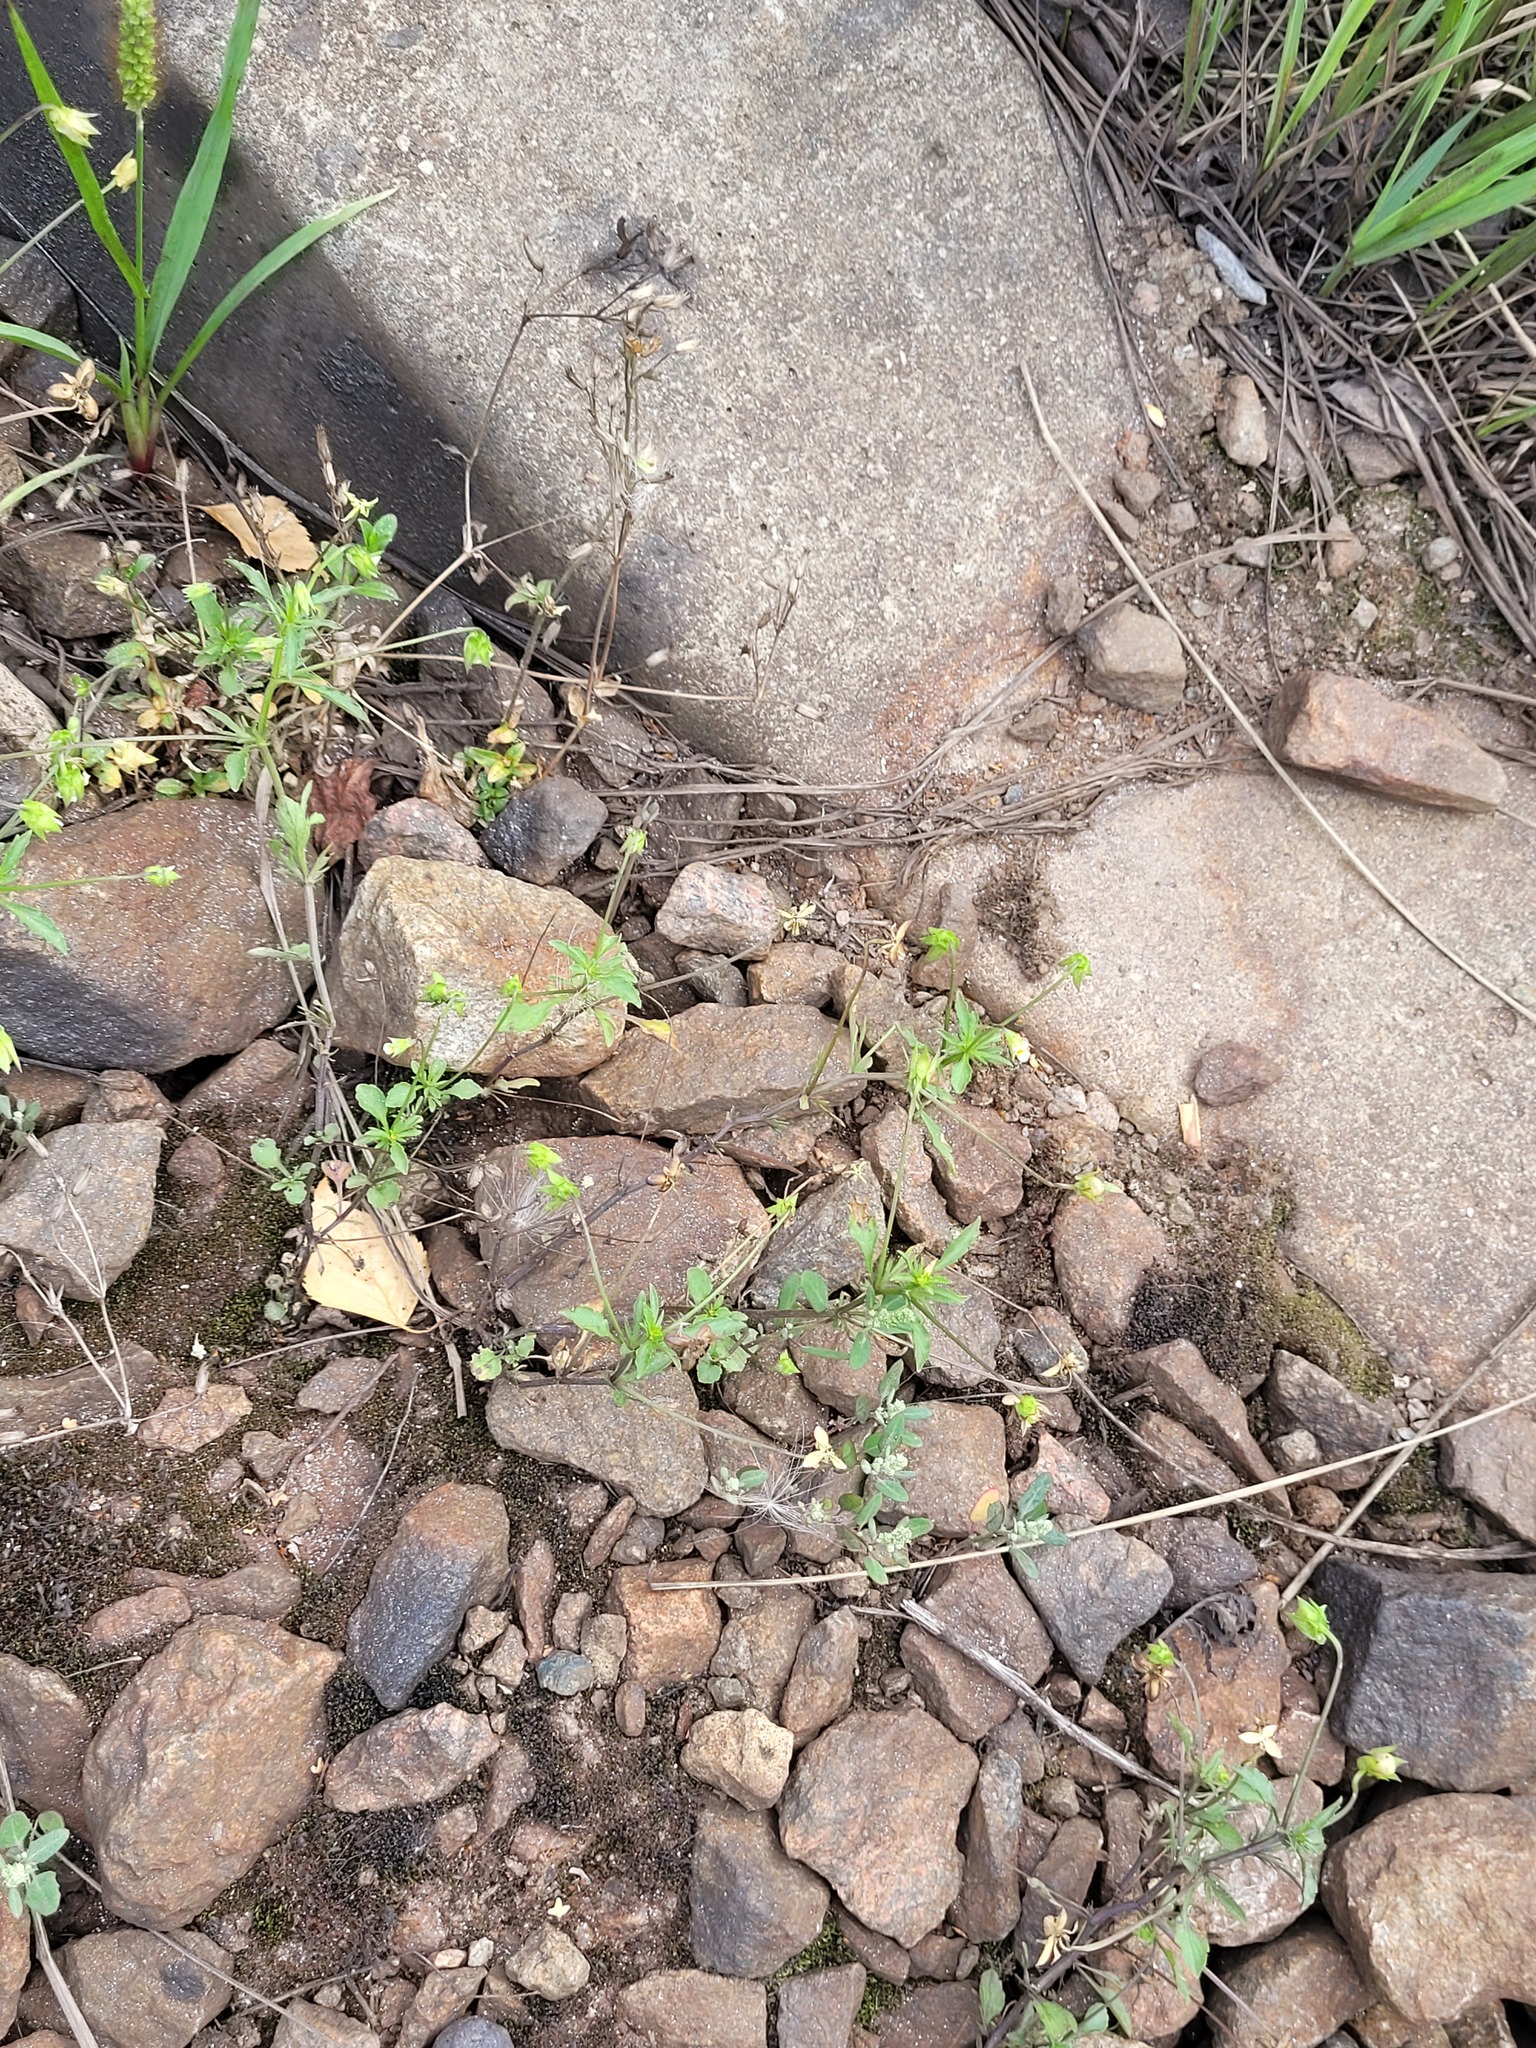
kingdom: Plantae
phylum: Tracheophyta
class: Magnoliopsida
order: Malpighiales
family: Violaceae
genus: Viola
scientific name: Viola arvensis
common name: Field pansy
